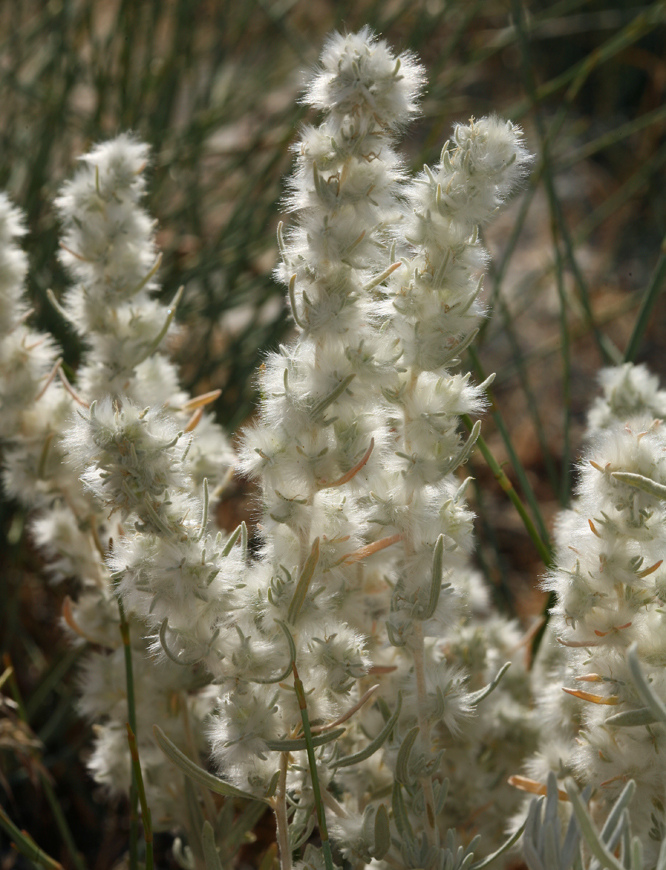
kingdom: Plantae
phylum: Tracheophyta
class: Magnoliopsida
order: Caryophyllales
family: Amaranthaceae
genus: Krascheninnikovia
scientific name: Krascheninnikovia lanata
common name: Winterfat
